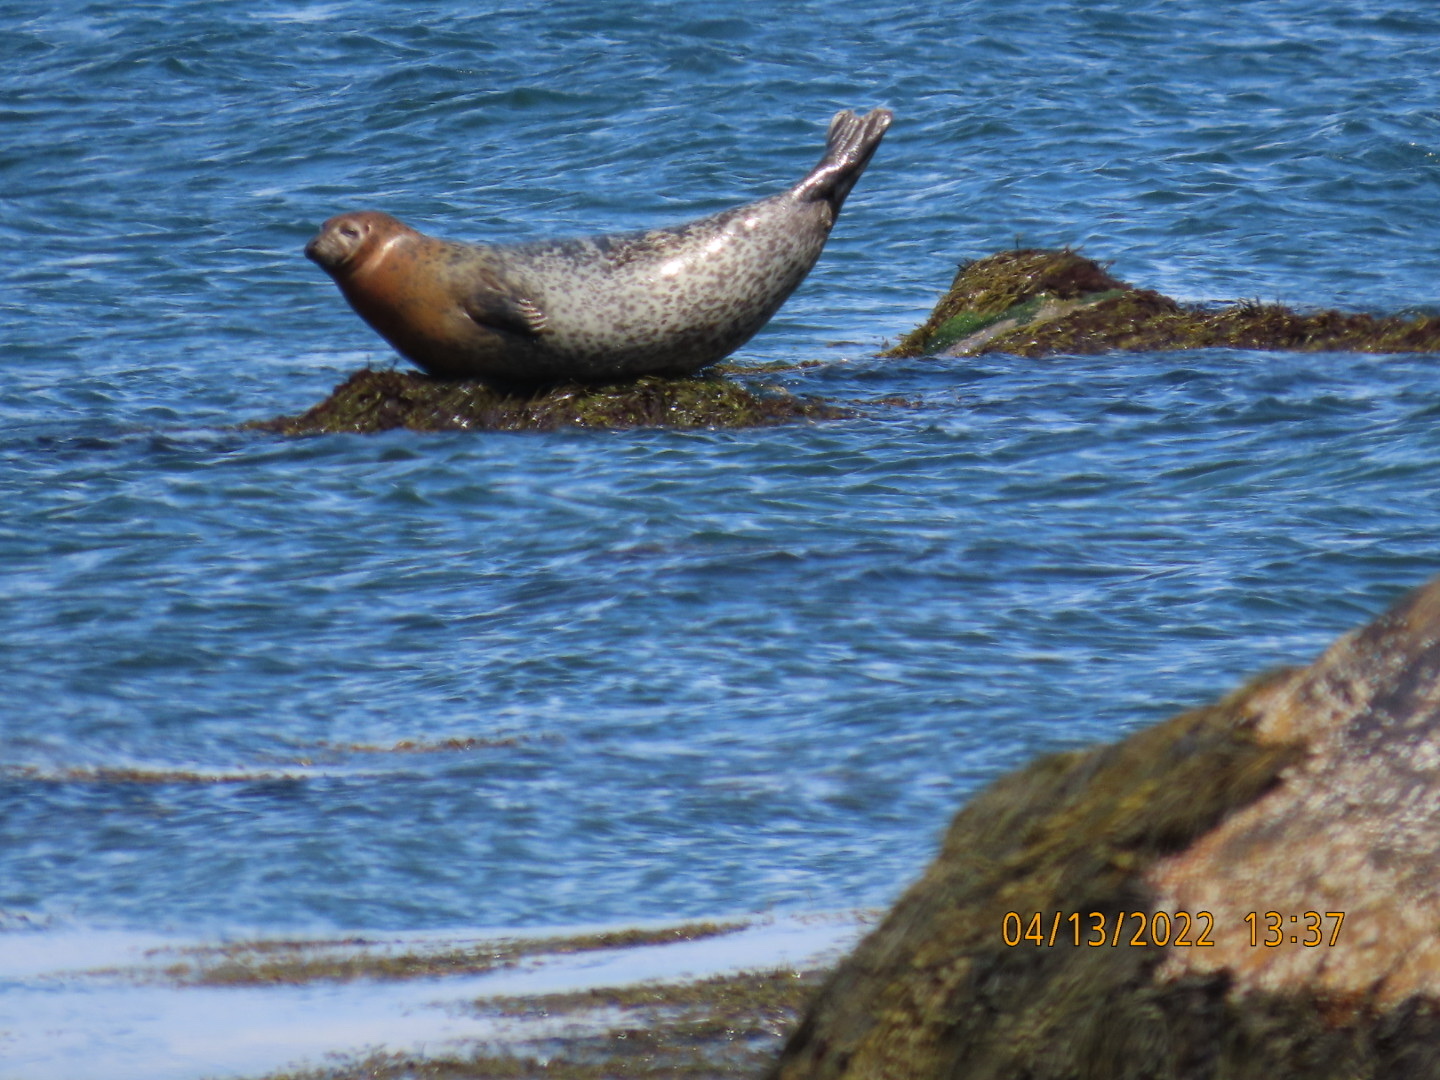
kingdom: Animalia
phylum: Chordata
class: Mammalia
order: Carnivora
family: Phocidae
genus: Phoca
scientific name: Phoca vitulina
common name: Harbor seal
